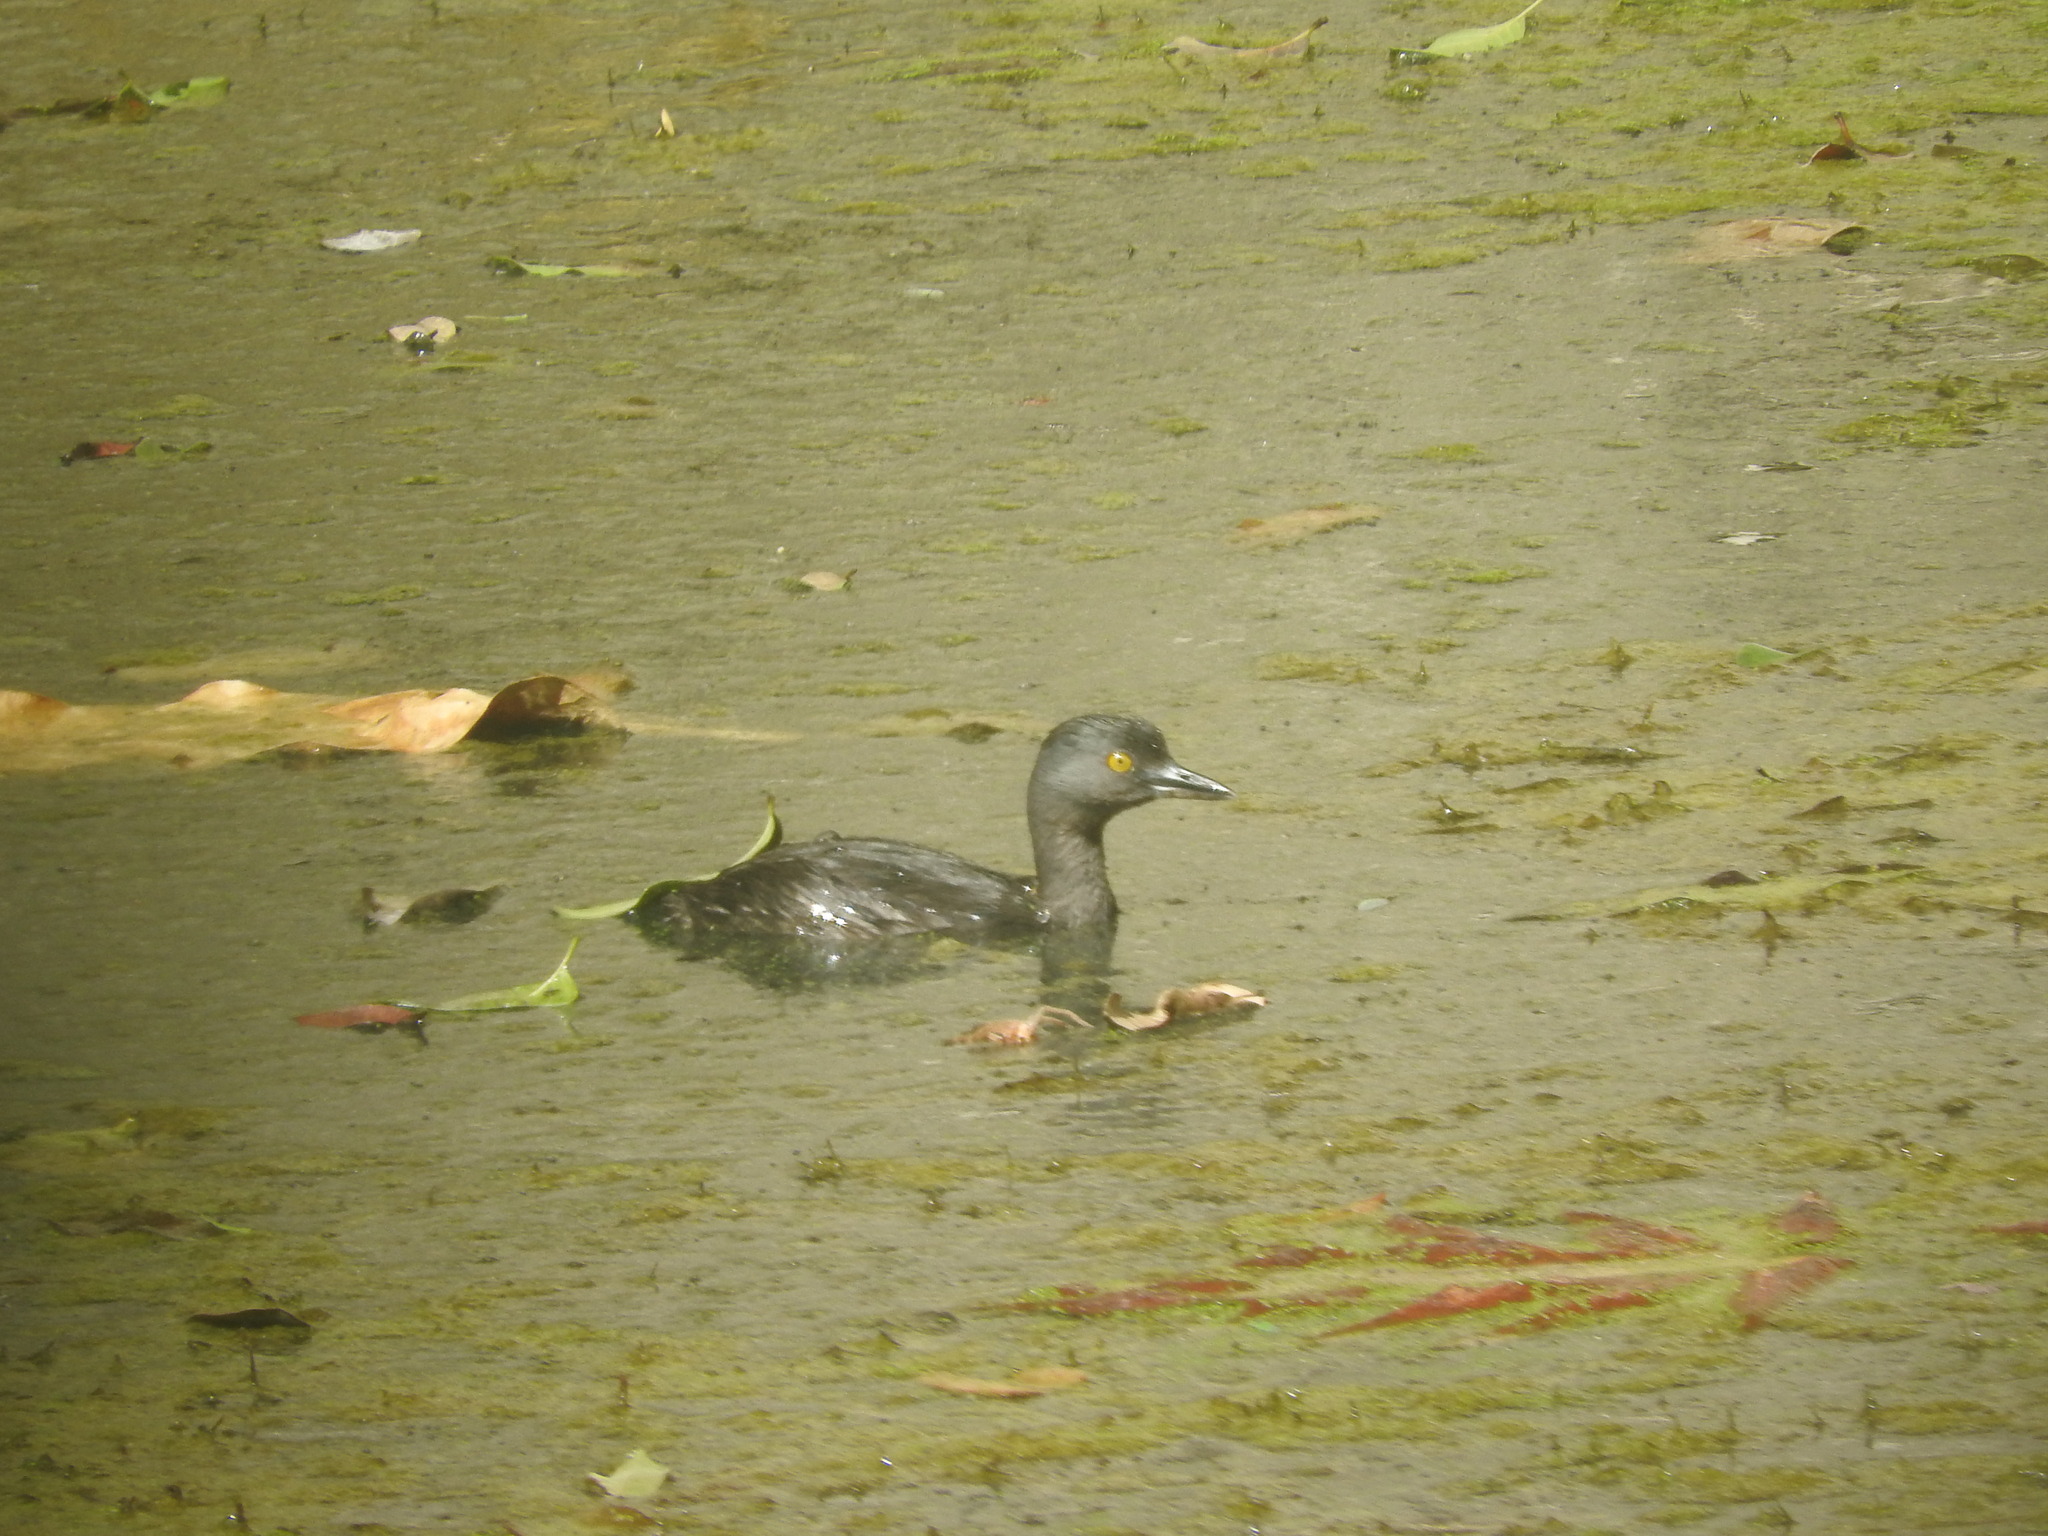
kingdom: Animalia
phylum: Chordata
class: Aves
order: Podicipediformes
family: Podicipedidae
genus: Tachybaptus
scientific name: Tachybaptus dominicus
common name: Least grebe
